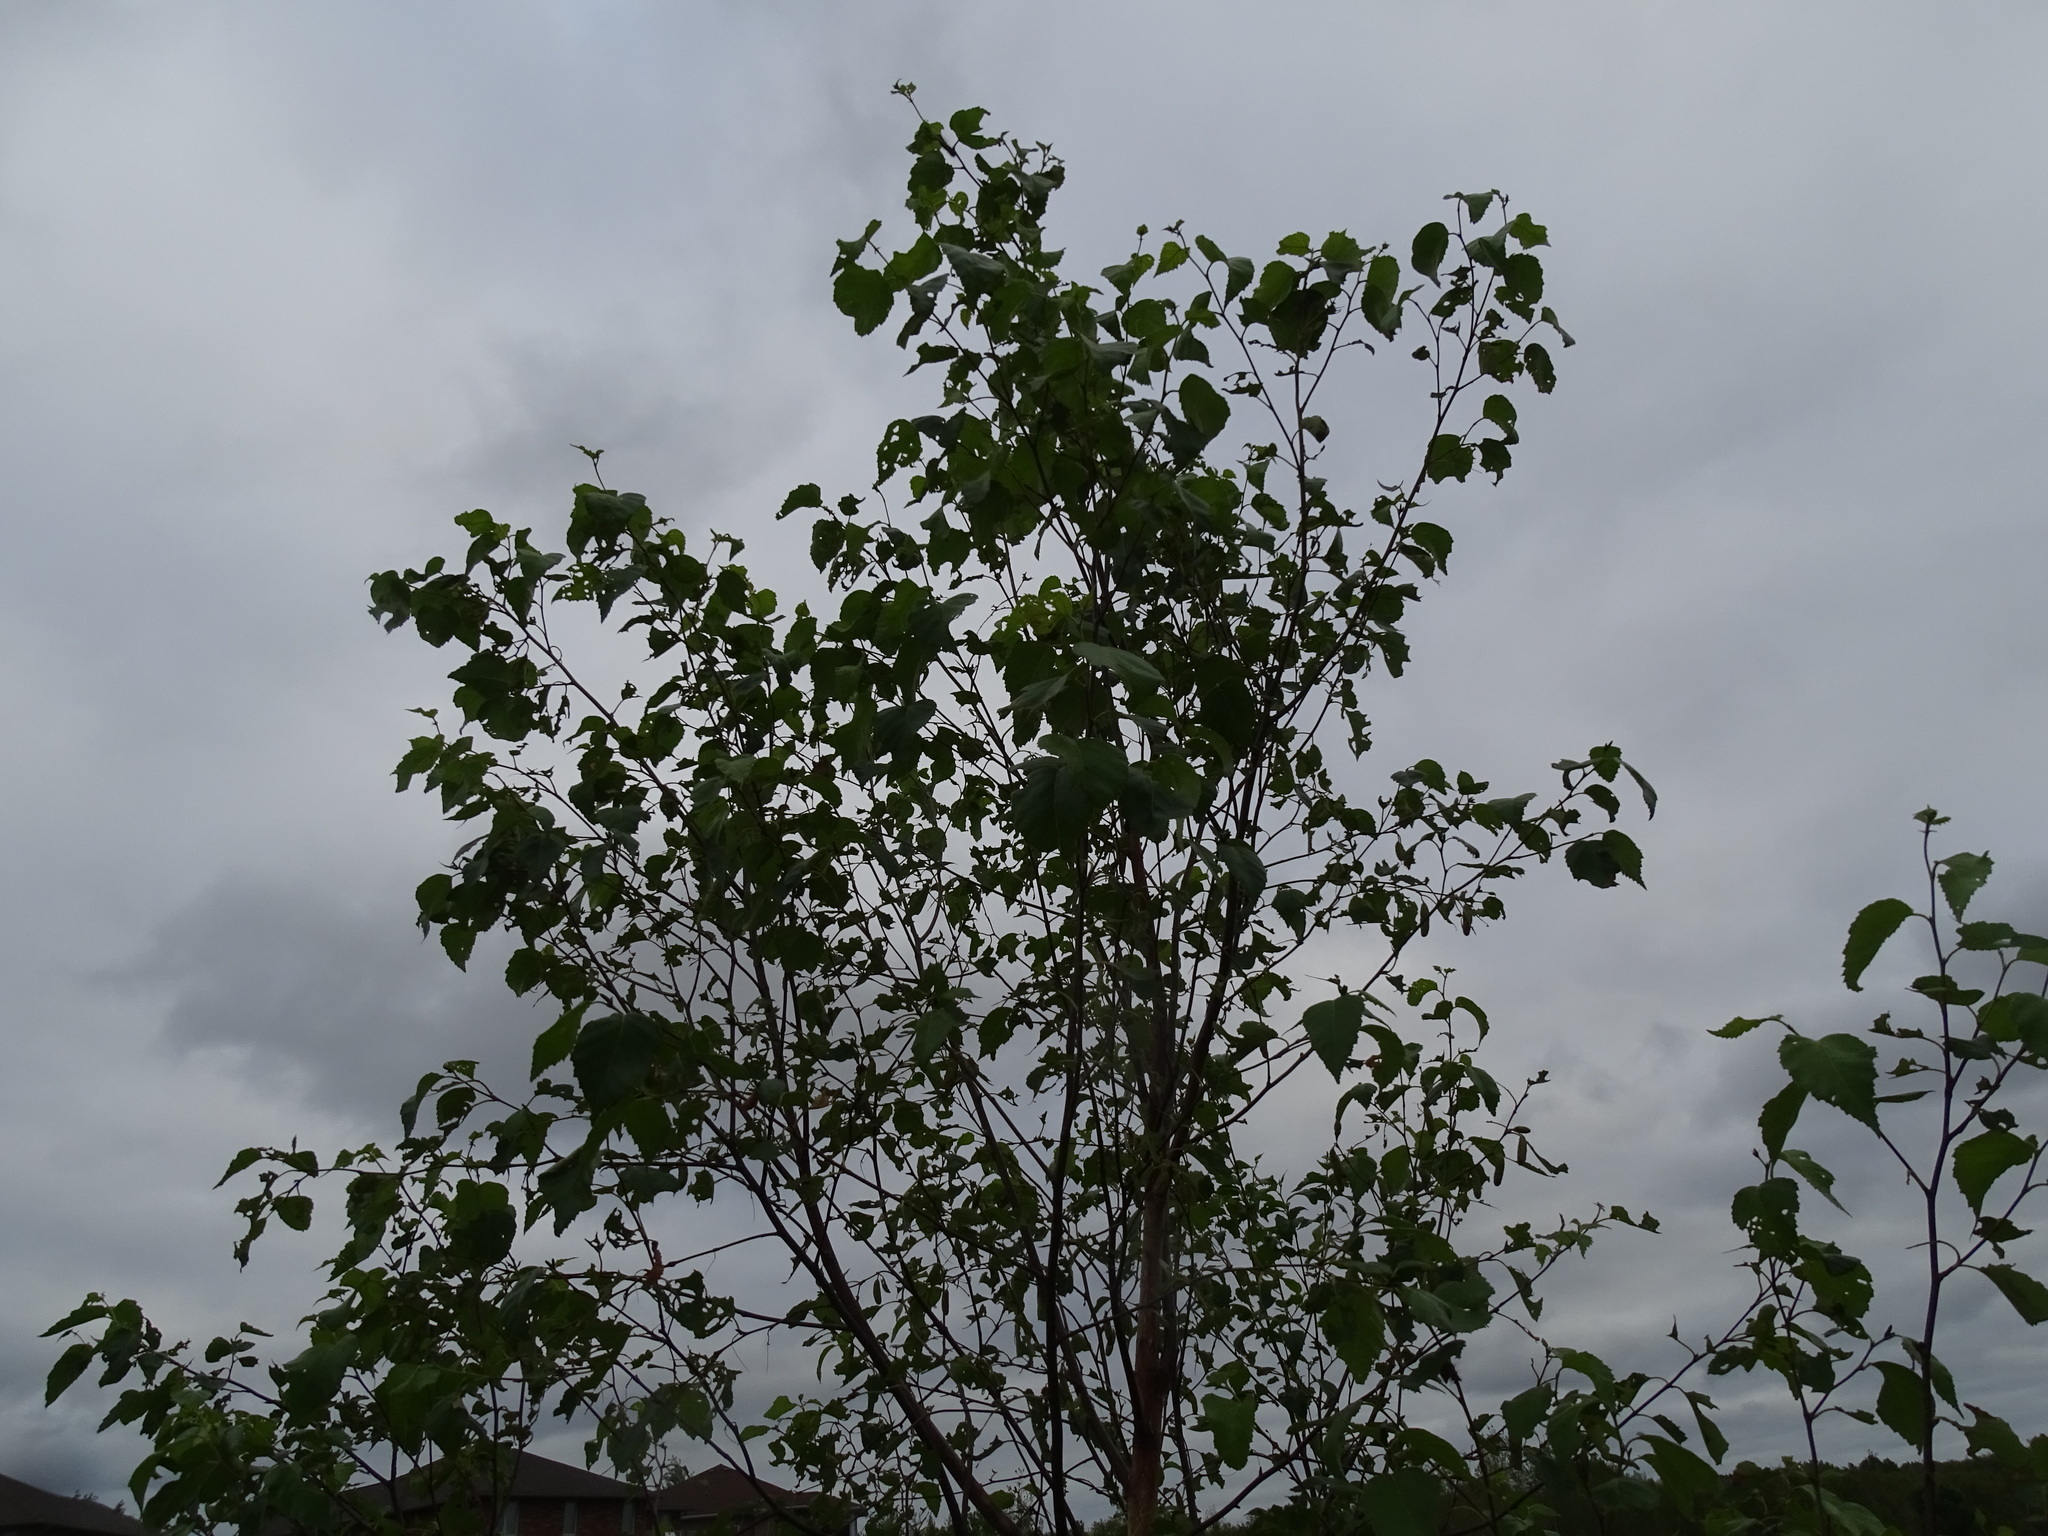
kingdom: Plantae
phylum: Tracheophyta
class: Magnoliopsida
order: Fagales
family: Betulaceae
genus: Betula
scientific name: Betula papyrifera
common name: Paper birch
